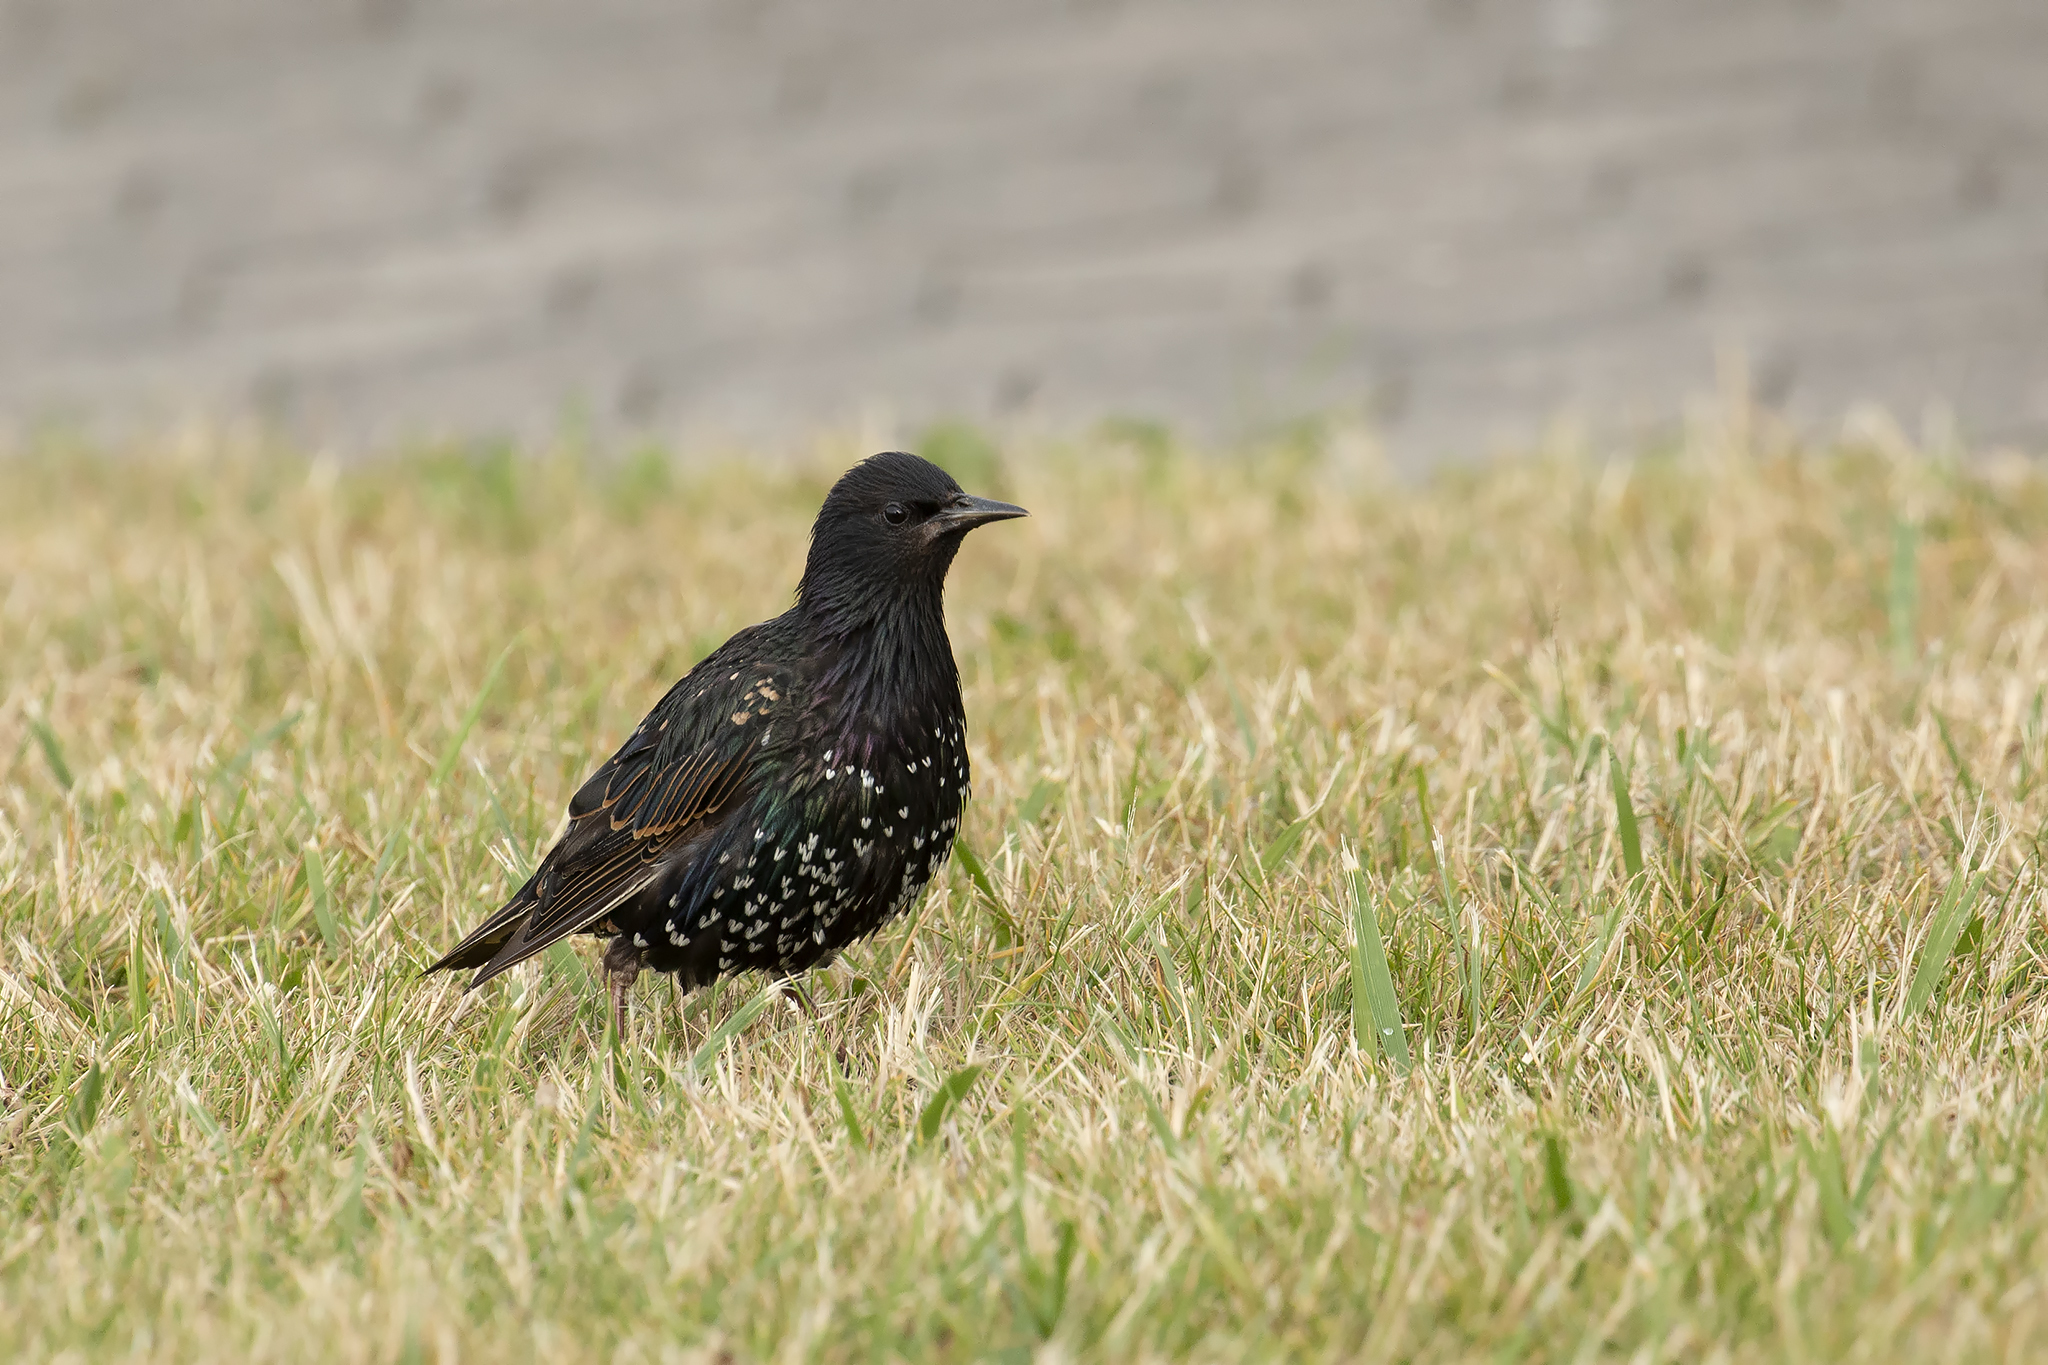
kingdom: Animalia
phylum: Chordata
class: Aves
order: Passeriformes
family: Sturnidae
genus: Sturnus
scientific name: Sturnus vulgaris
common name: Common starling
